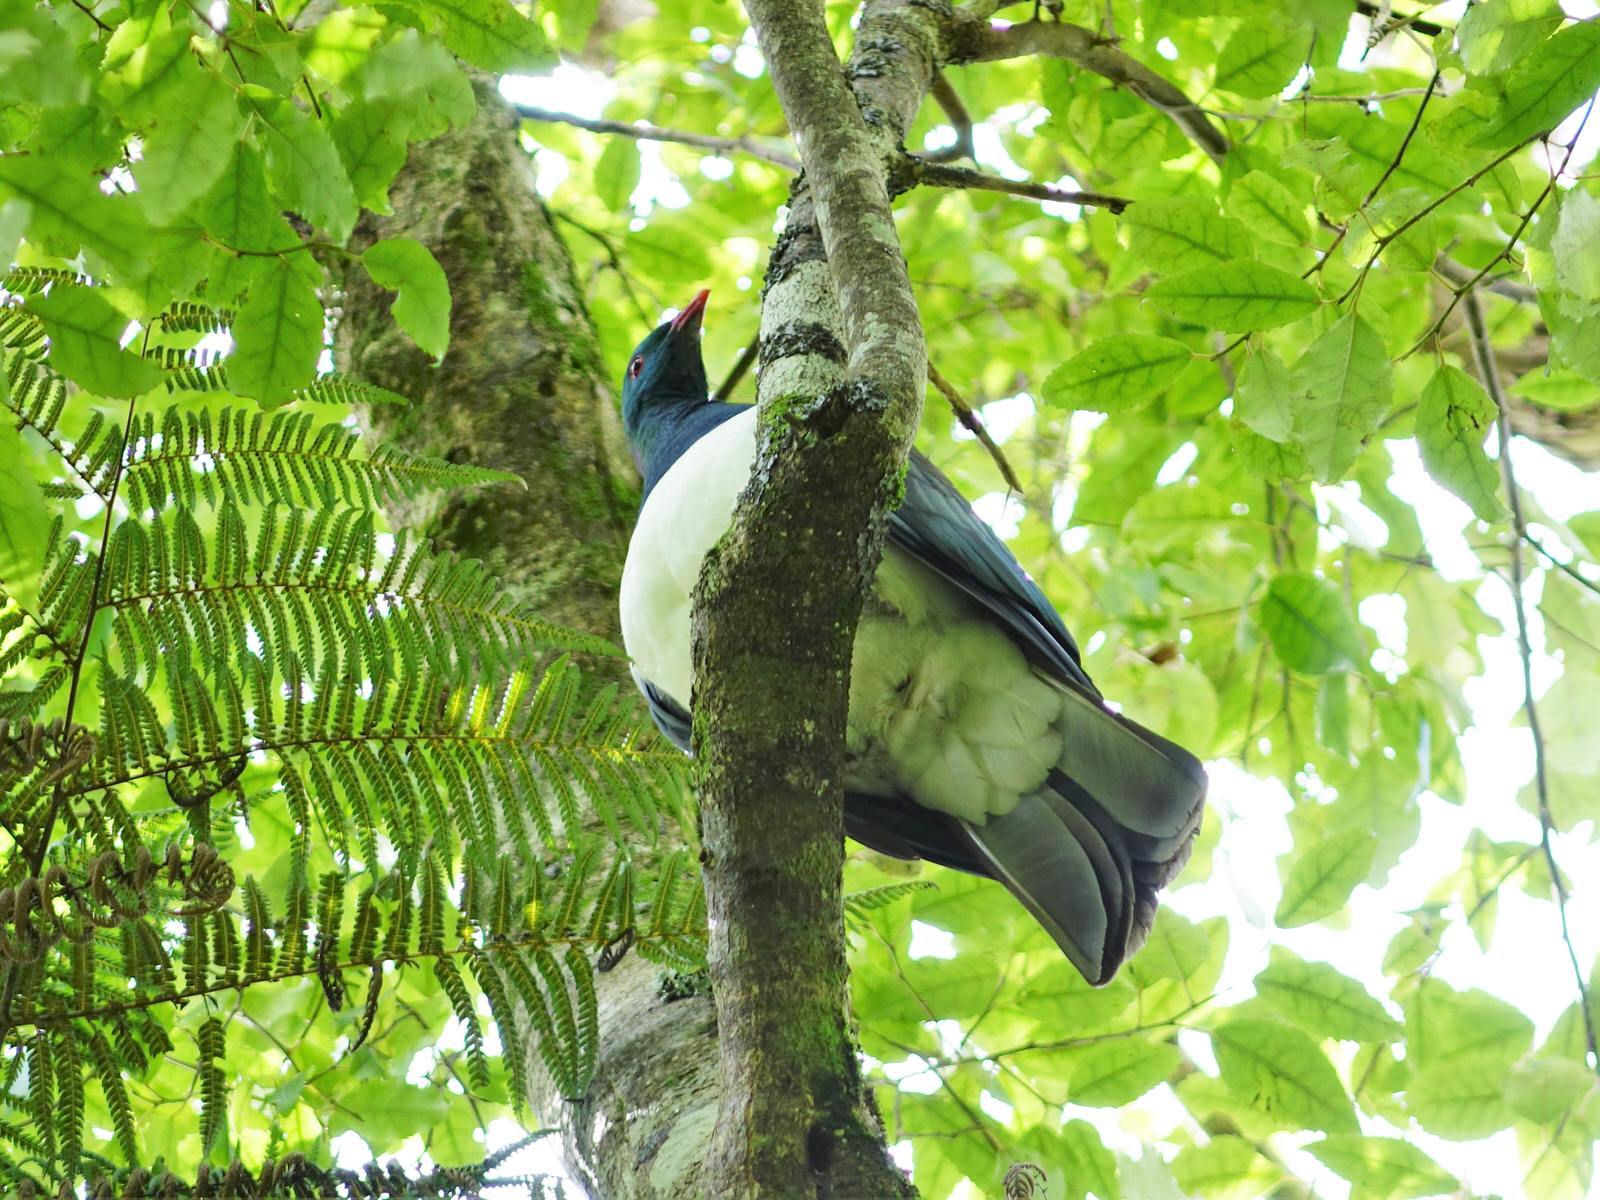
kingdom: Animalia
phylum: Chordata
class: Aves
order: Columbiformes
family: Columbidae
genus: Hemiphaga
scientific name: Hemiphaga novaeseelandiae
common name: New zealand pigeon
